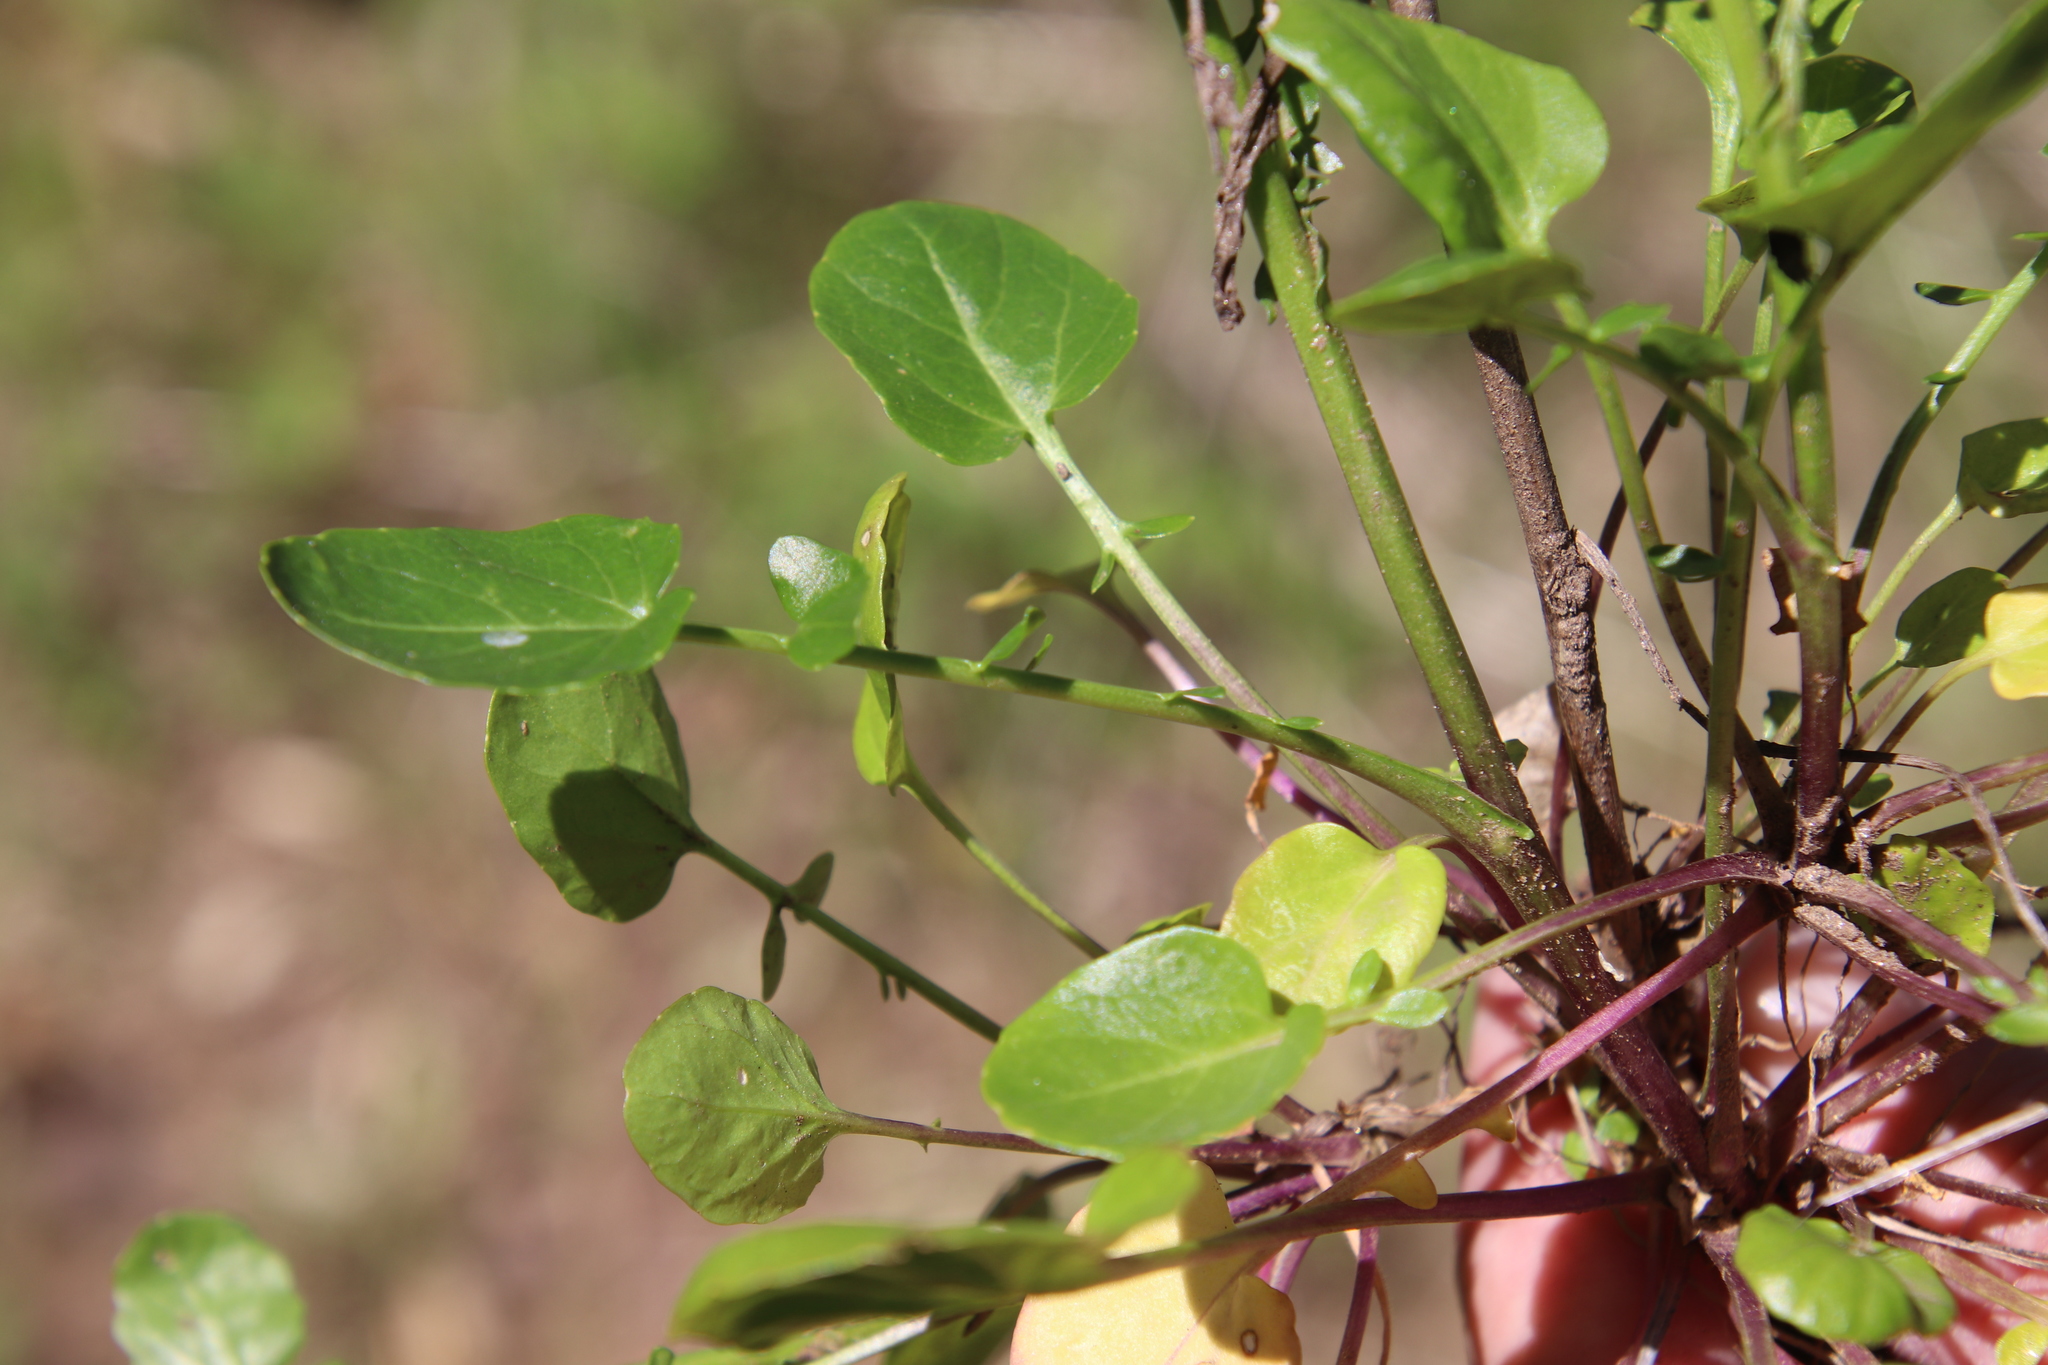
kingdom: Plantae
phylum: Tracheophyta
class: Magnoliopsida
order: Brassicales
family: Brassicaceae
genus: Barbarea
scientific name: Barbarea orthoceras
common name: American wintercress
